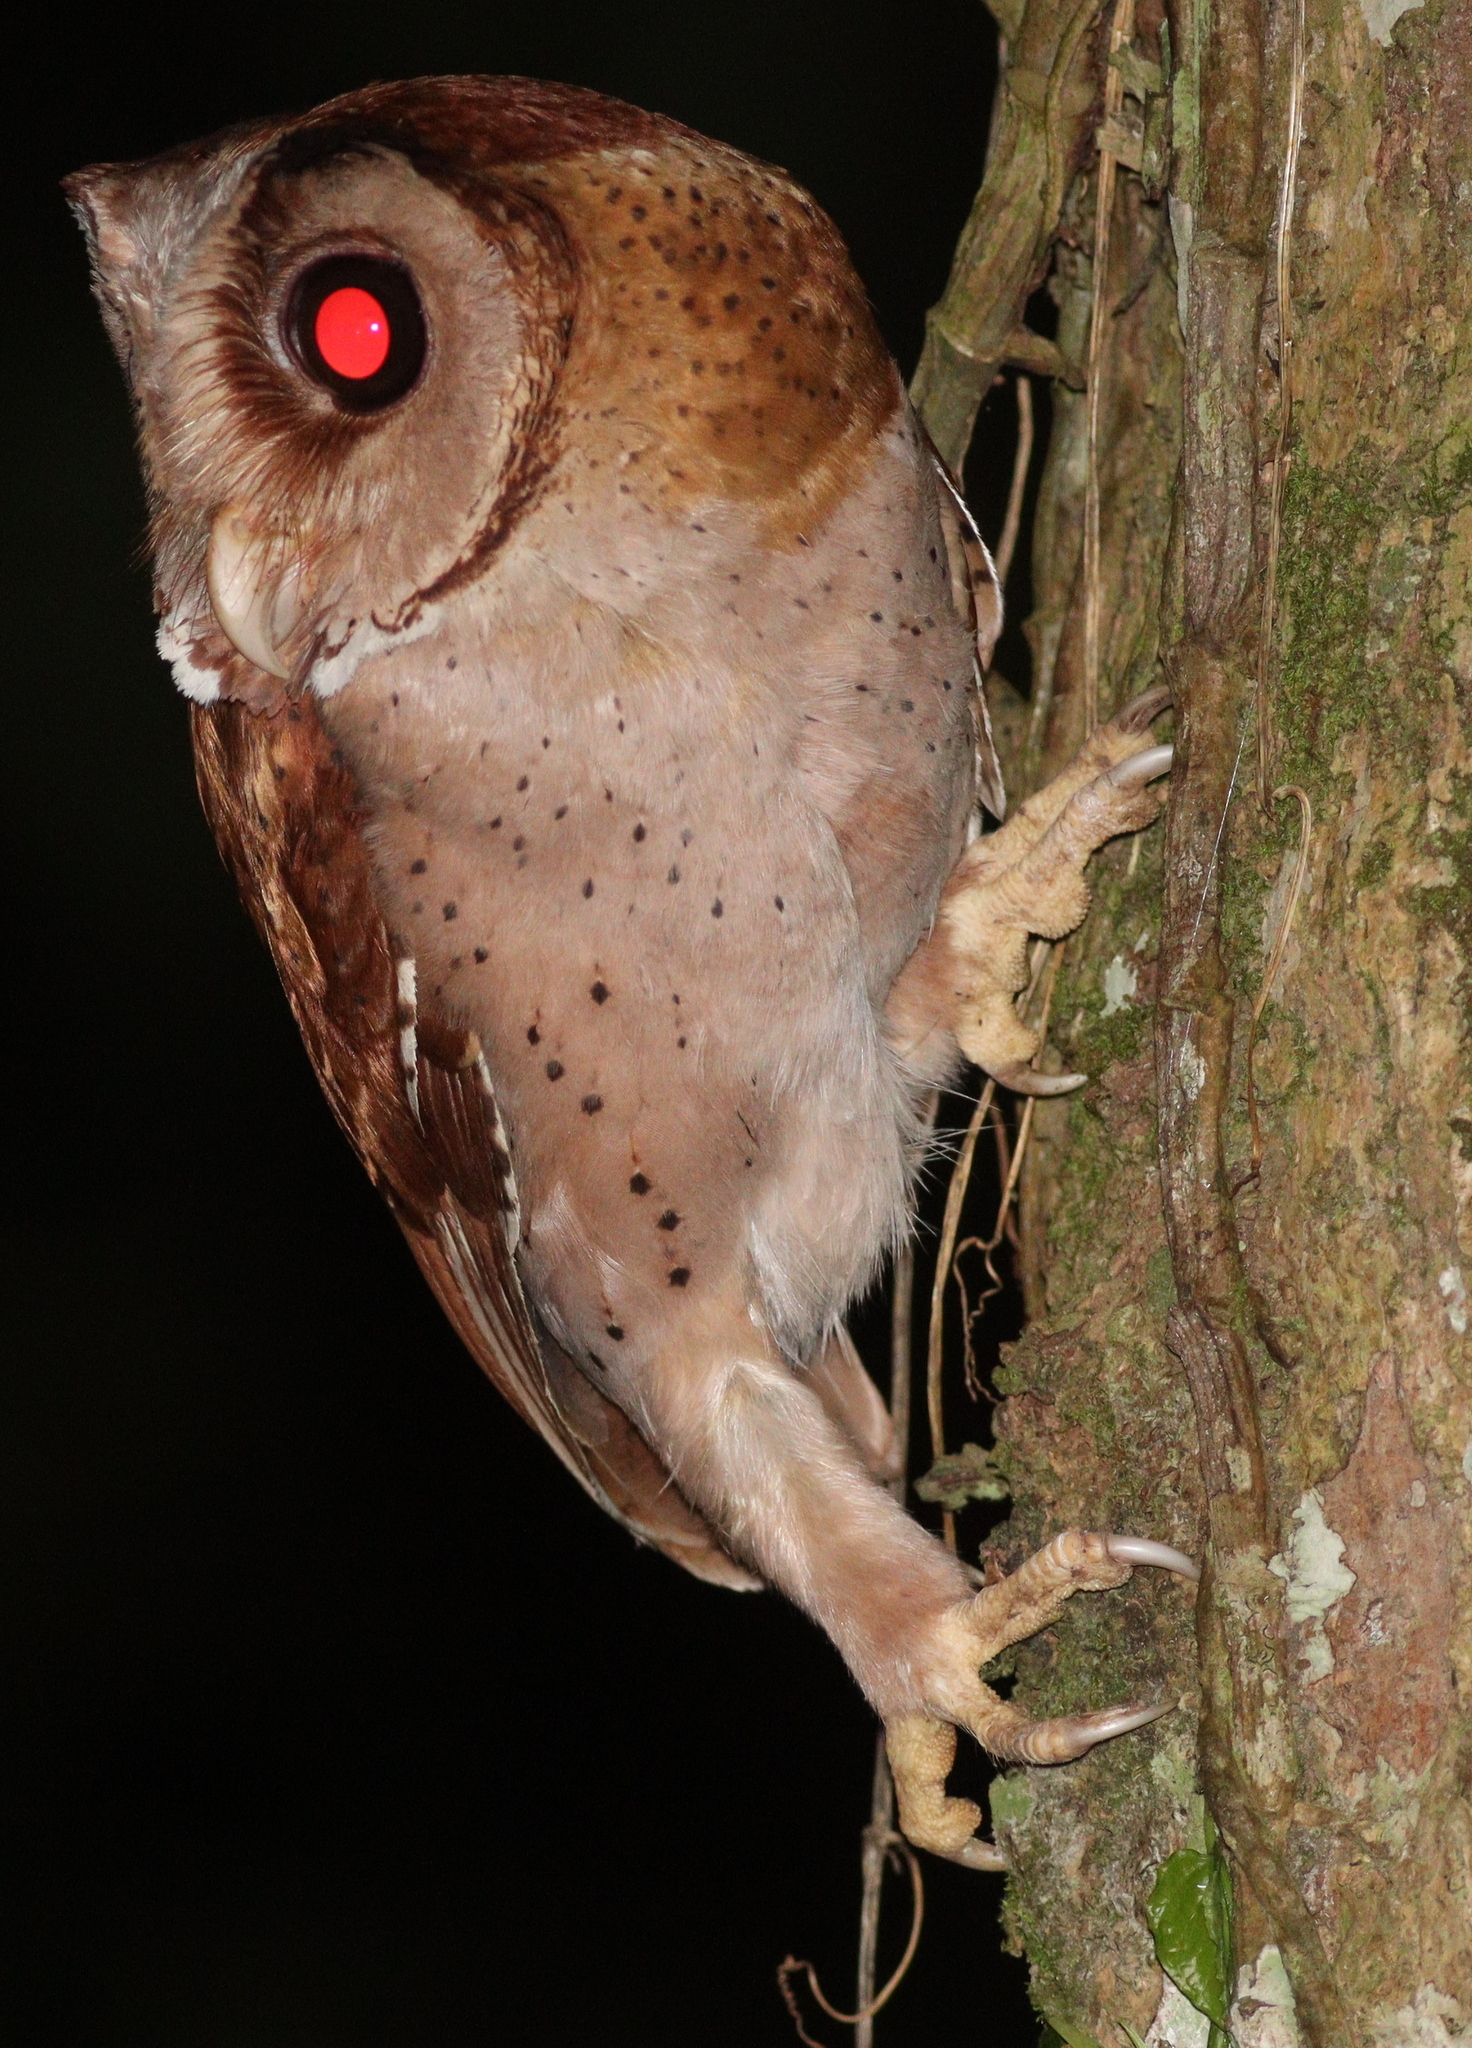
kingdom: Animalia
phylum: Chordata
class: Aves
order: Strigiformes
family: Tytonidae
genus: Phodilus
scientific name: Phodilus badius
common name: Oriental bay-owl
